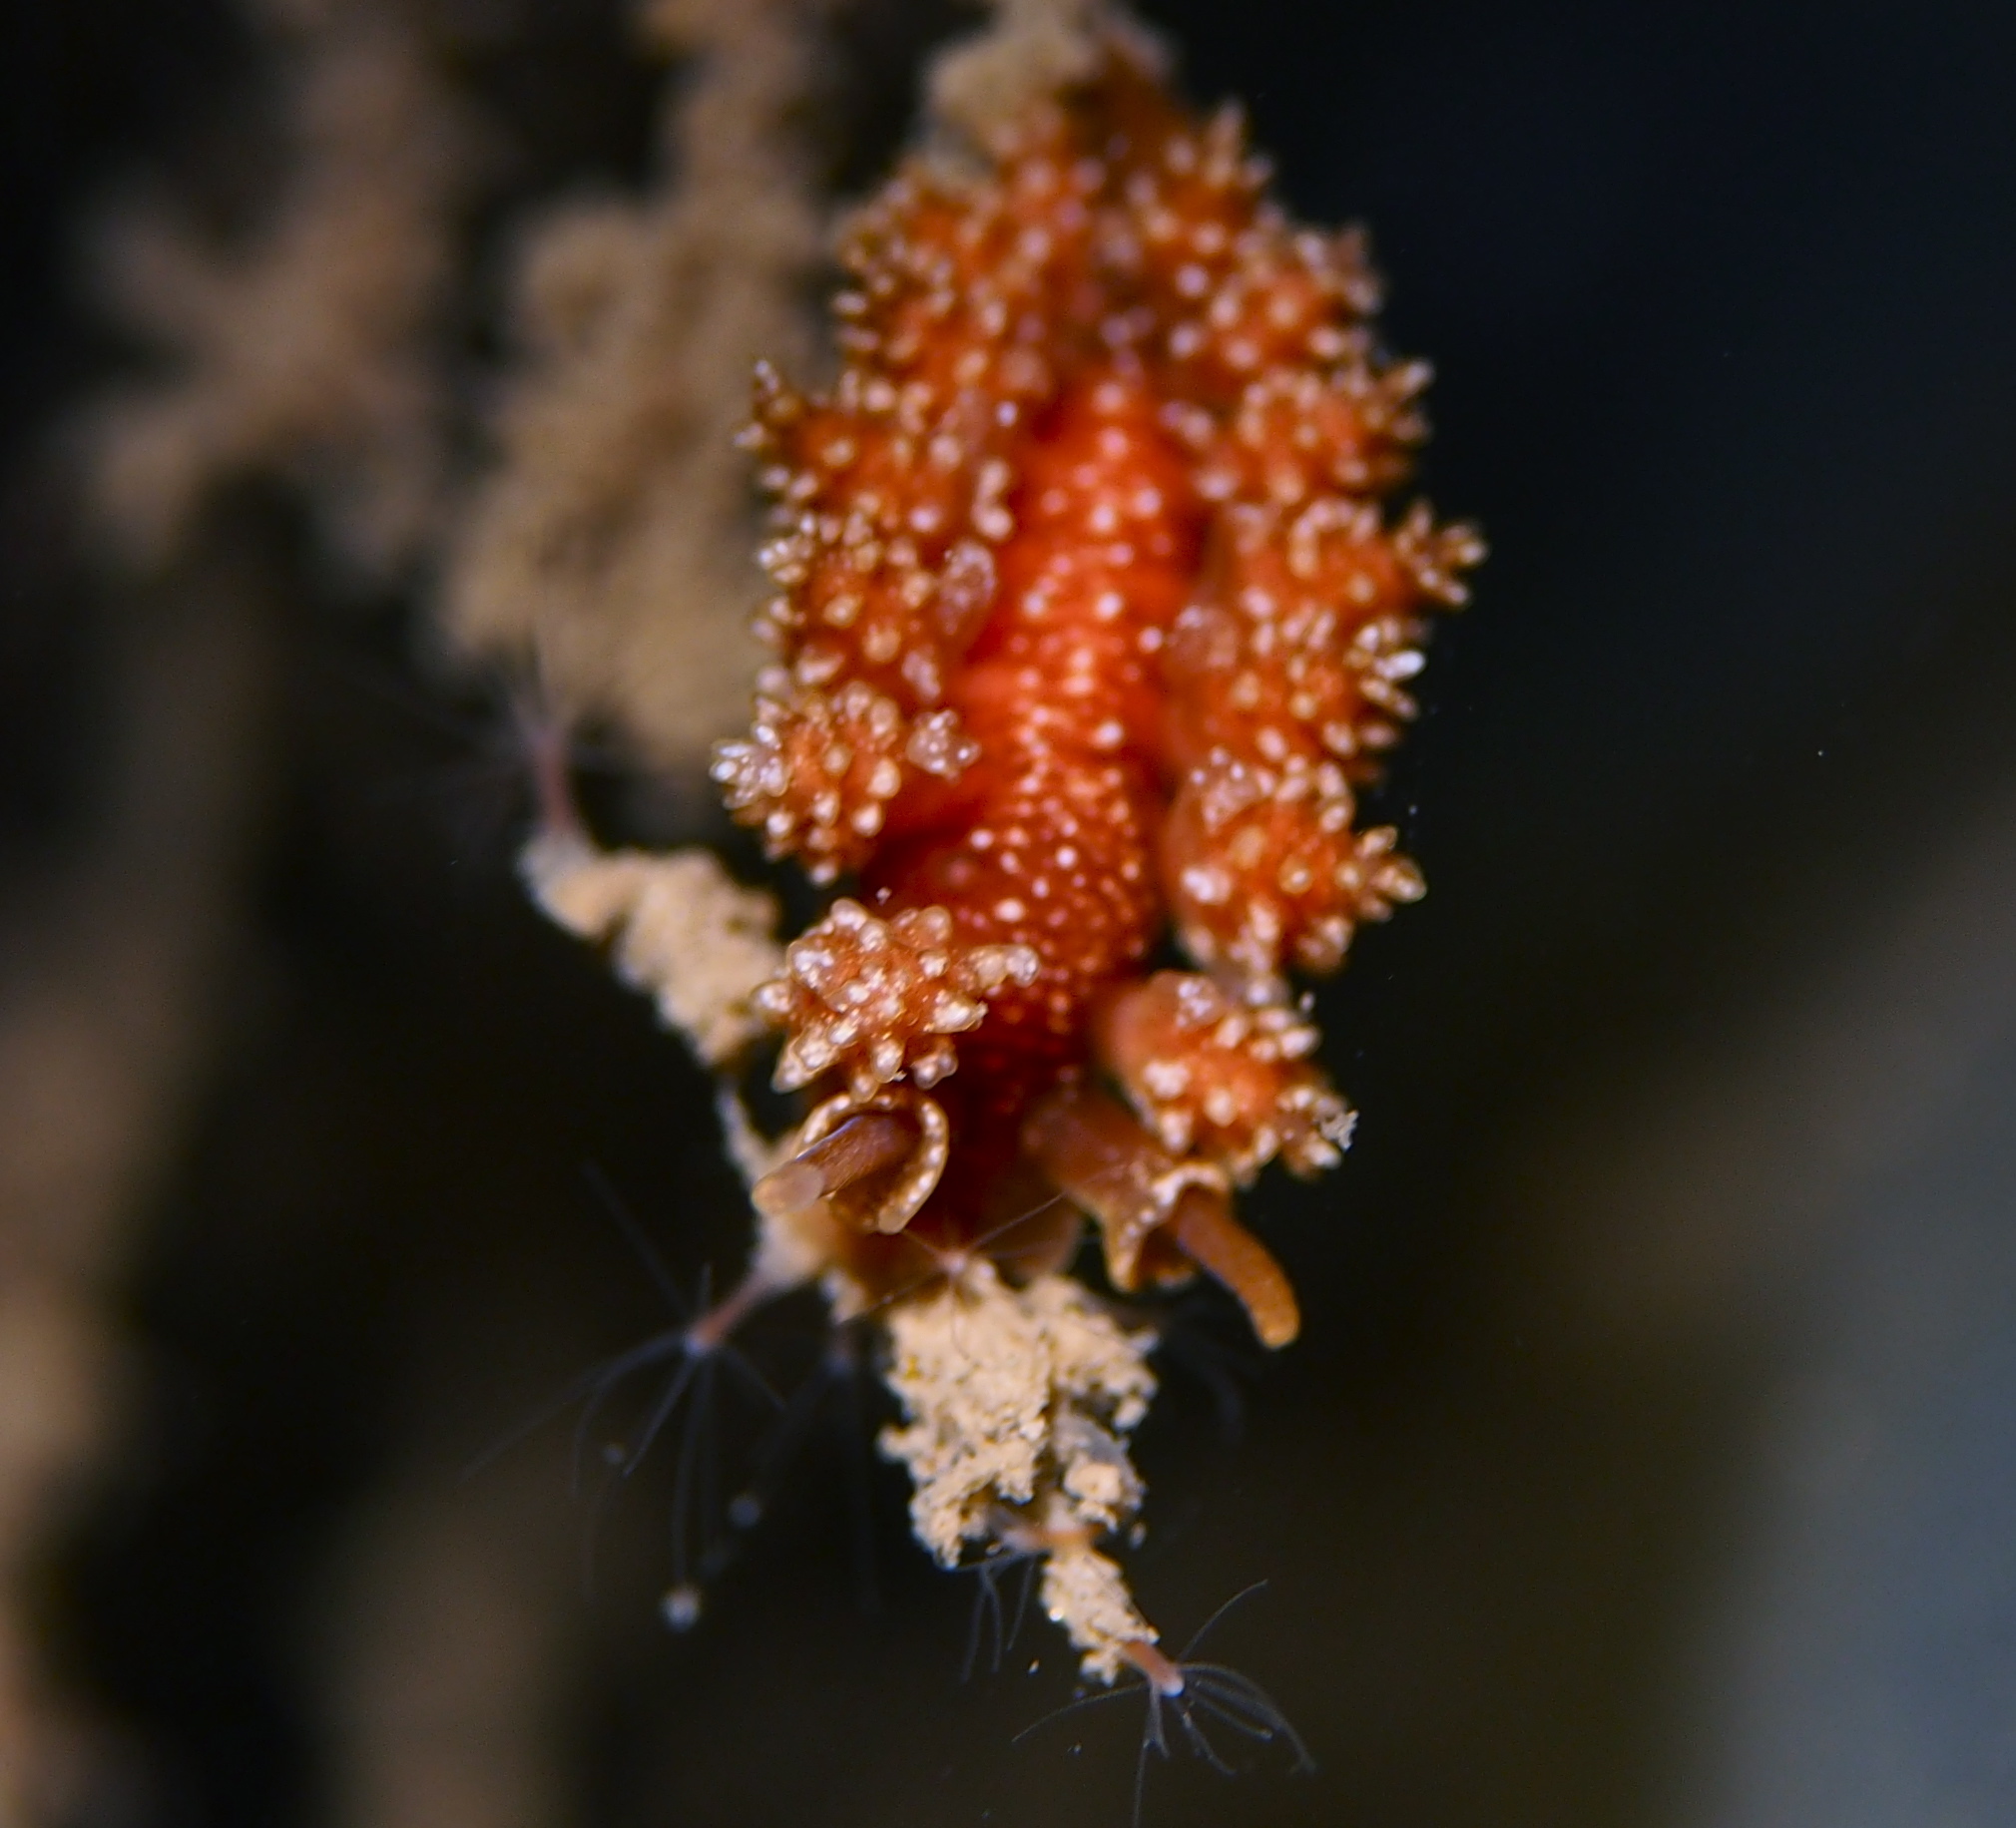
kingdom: Animalia
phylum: Mollusca
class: Gastropoda
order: Nudibranchia
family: Dotidae
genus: Doto
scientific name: Doto fragilis
